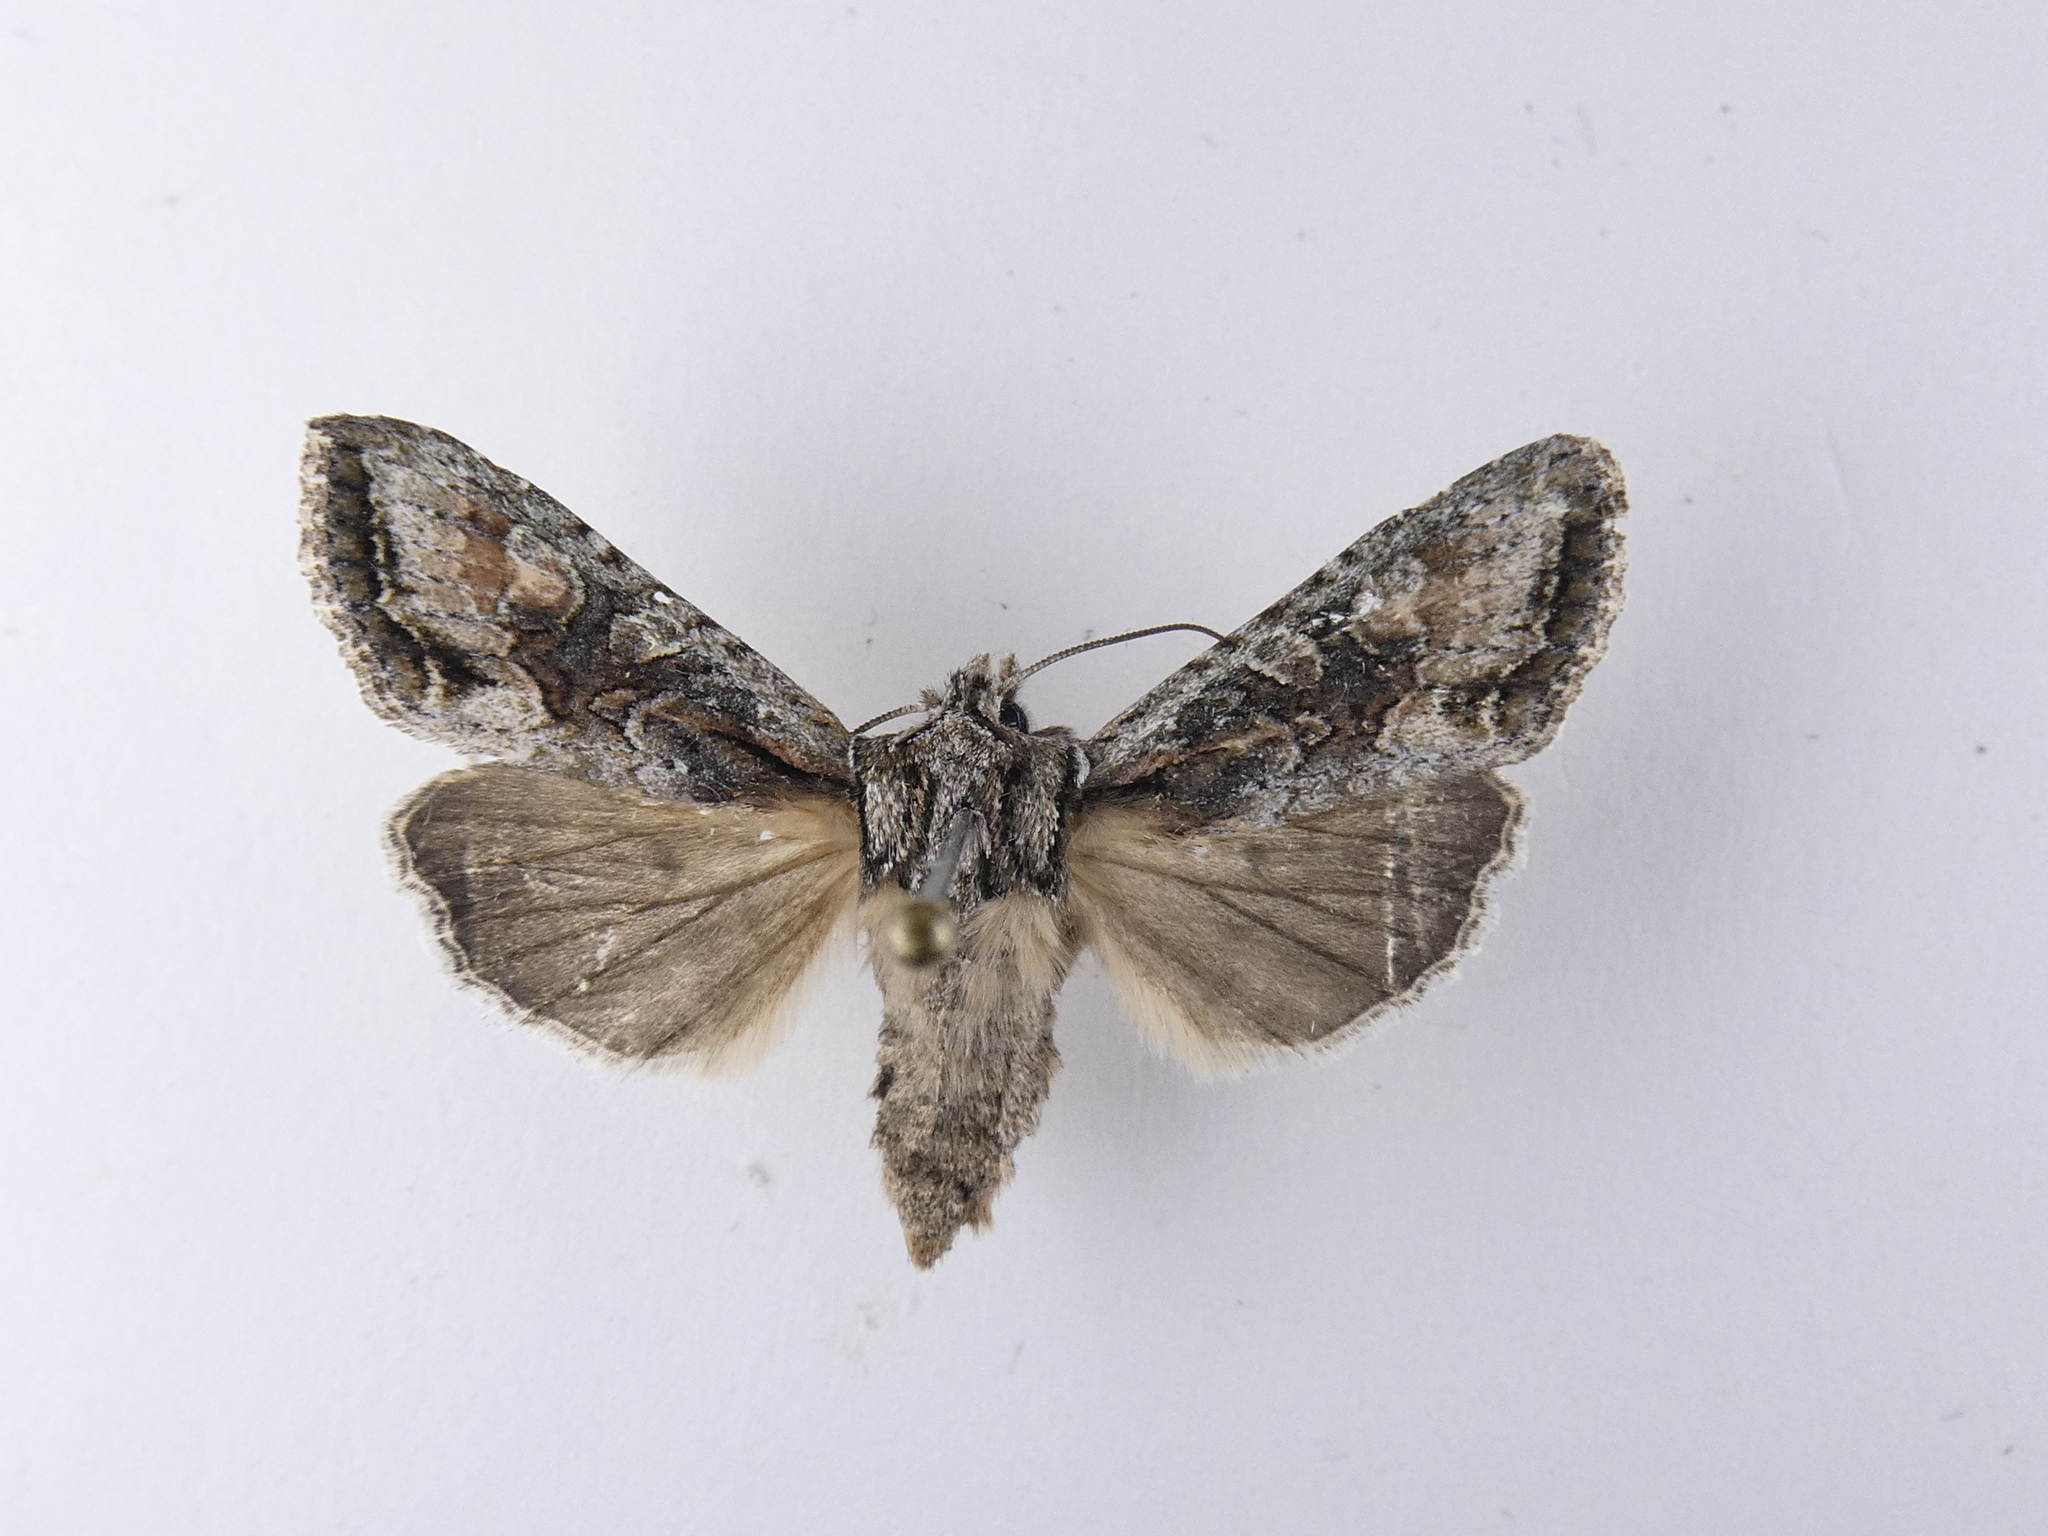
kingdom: Animalia
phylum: Arthropoda
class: Insecta
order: Lepidoptera
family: Noctuidae
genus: Ichneutica
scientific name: Ichneutica mutans
